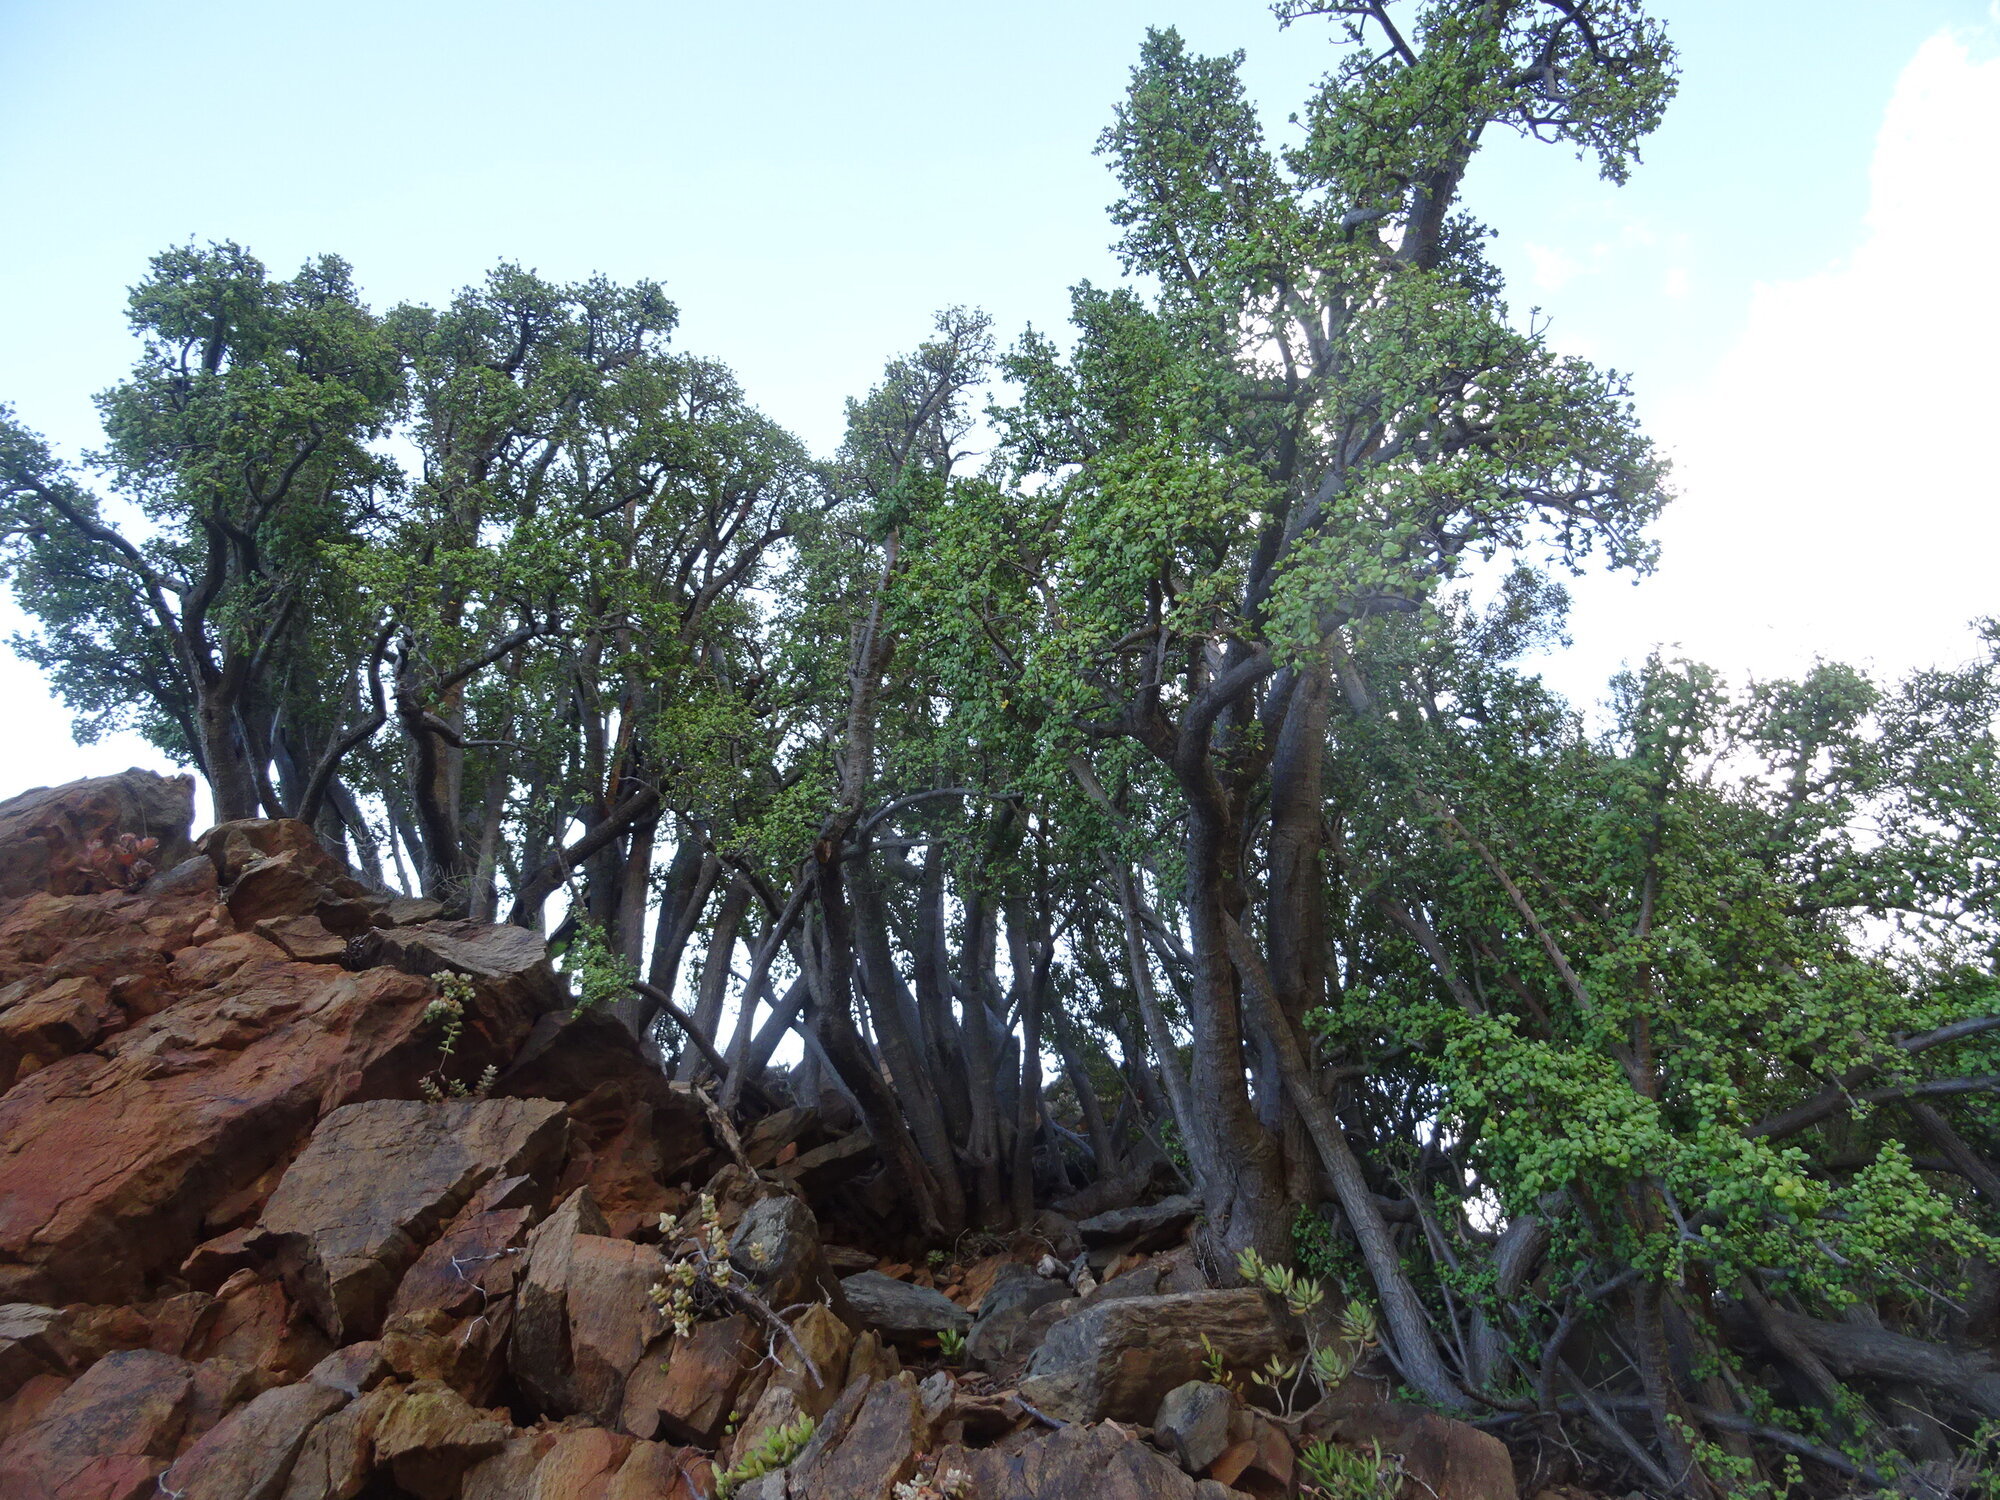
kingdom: Plantae
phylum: Tracheophyta
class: Magnoliopsida
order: Caryophyllales
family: Didiereaceae
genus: Portulacaria
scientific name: Portulacaria afra
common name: Elephant-bush
